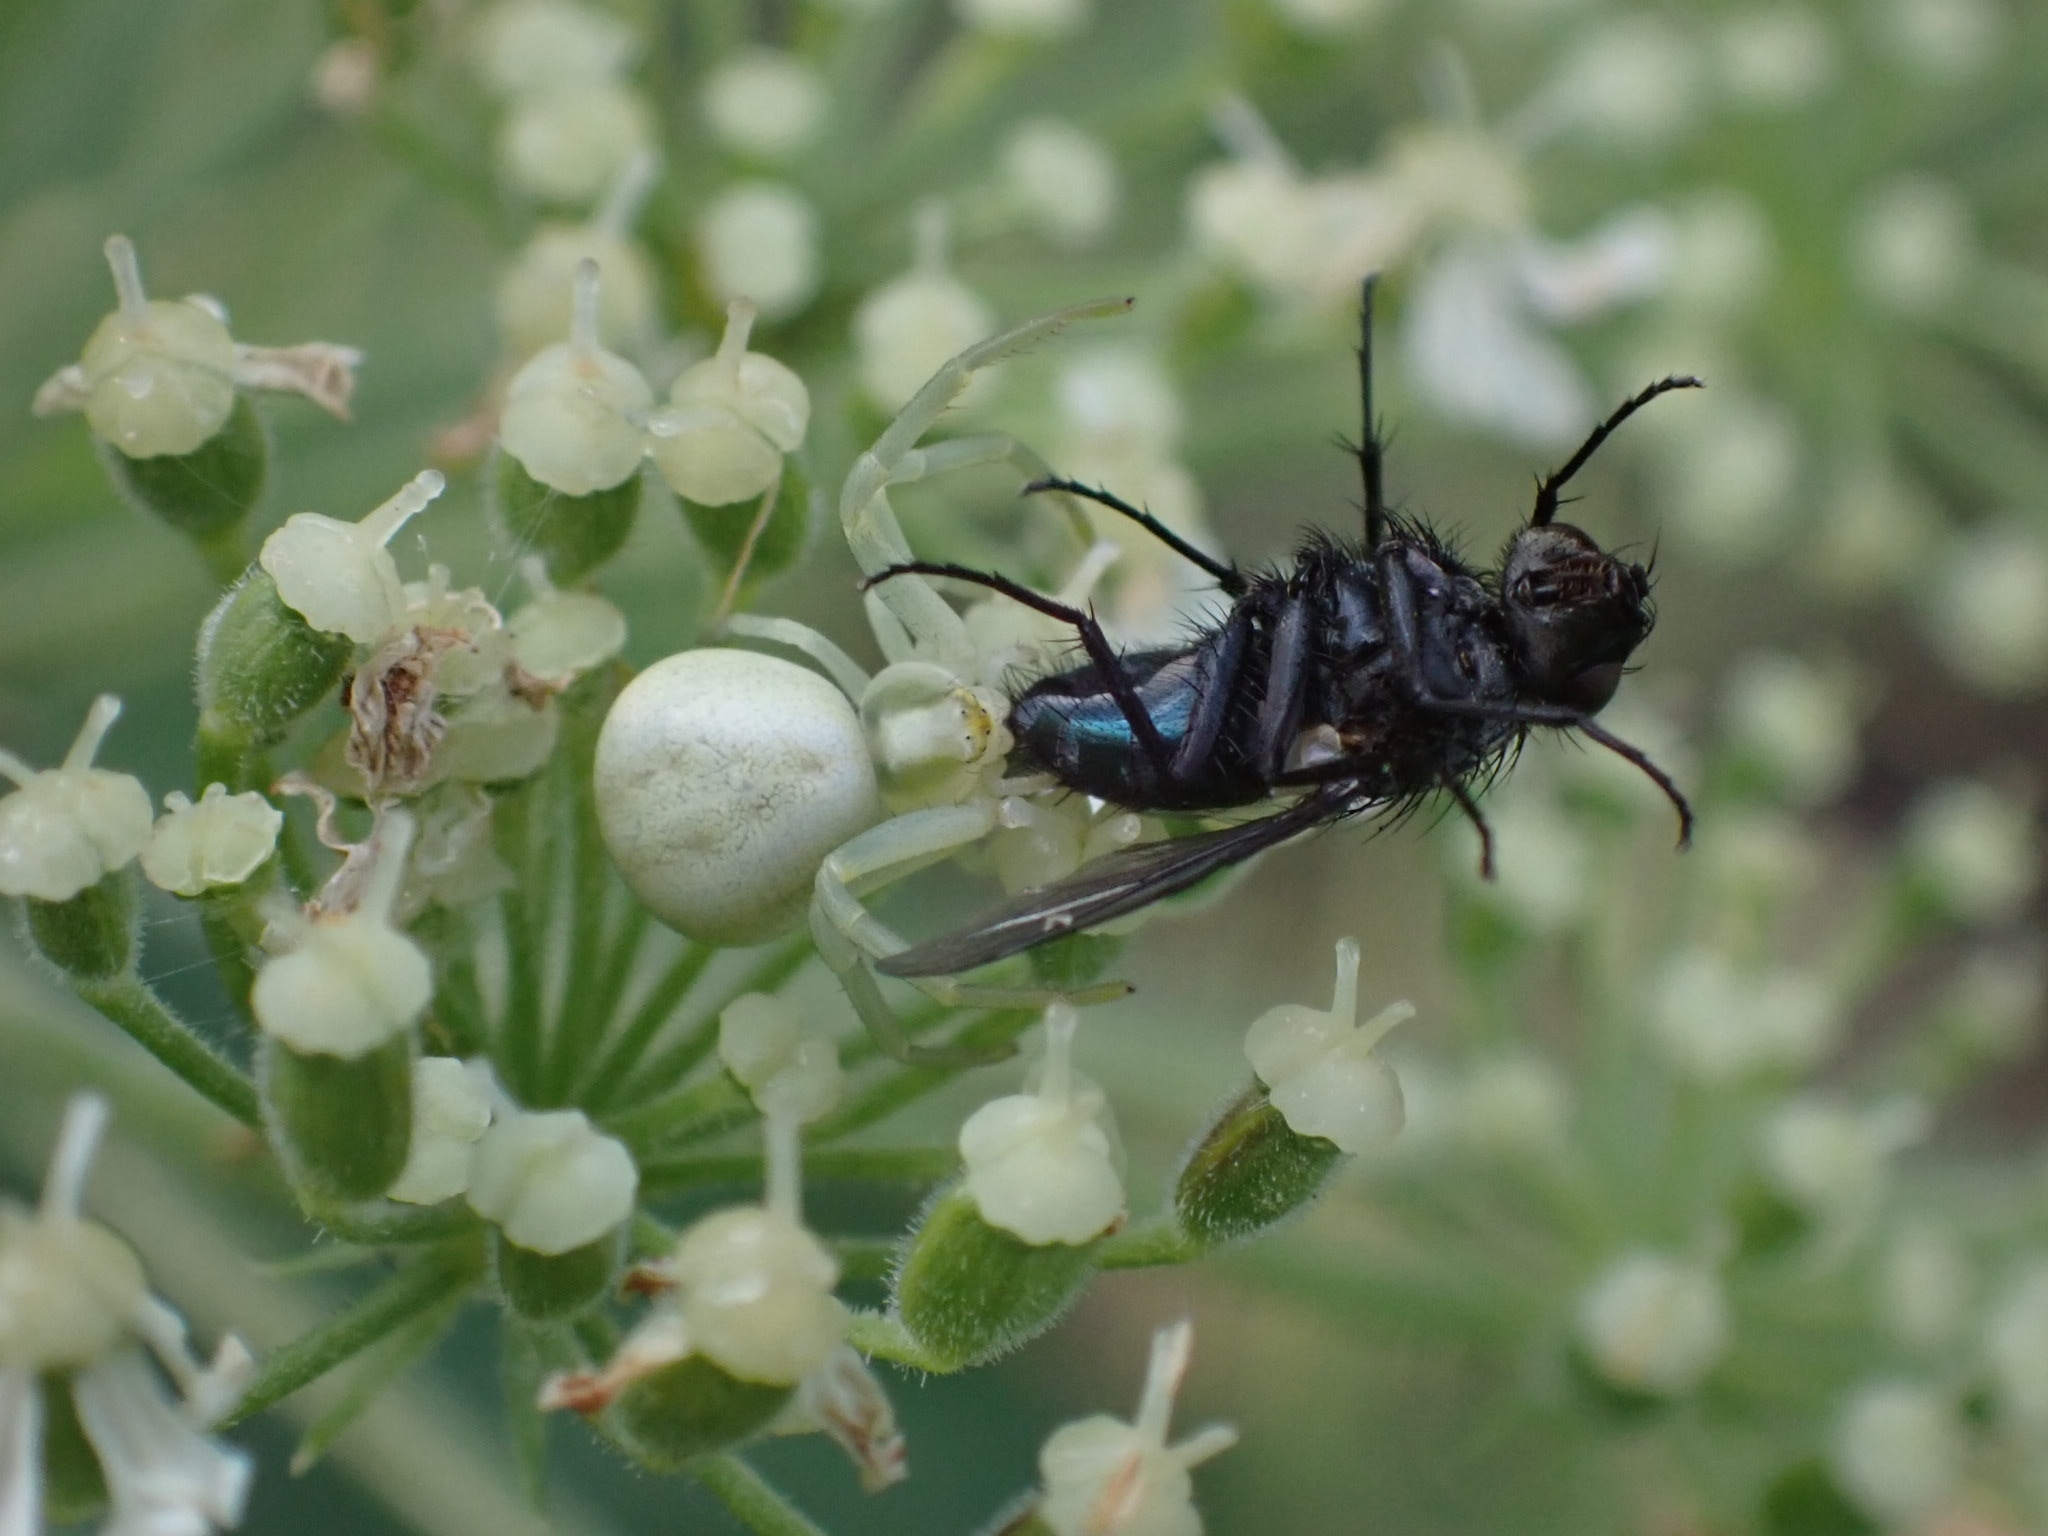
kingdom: Animalia
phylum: Arthropoda
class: Arachnida
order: Araneae
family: Thomisidae
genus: Misumena
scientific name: Misumena vatia
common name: Goldenrod crab spider
